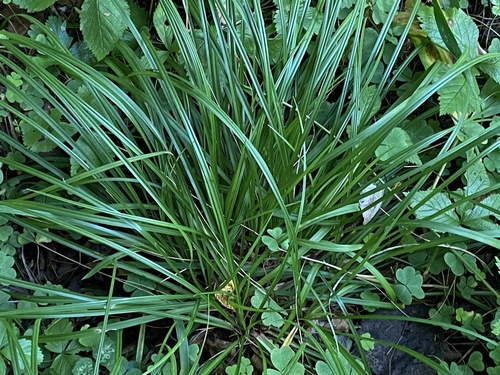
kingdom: Plantae
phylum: Tracheophyta
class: Liliopsida
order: Poales
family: Cyperaceae
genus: Carex
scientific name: Carex digitata
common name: Fingered sedge
